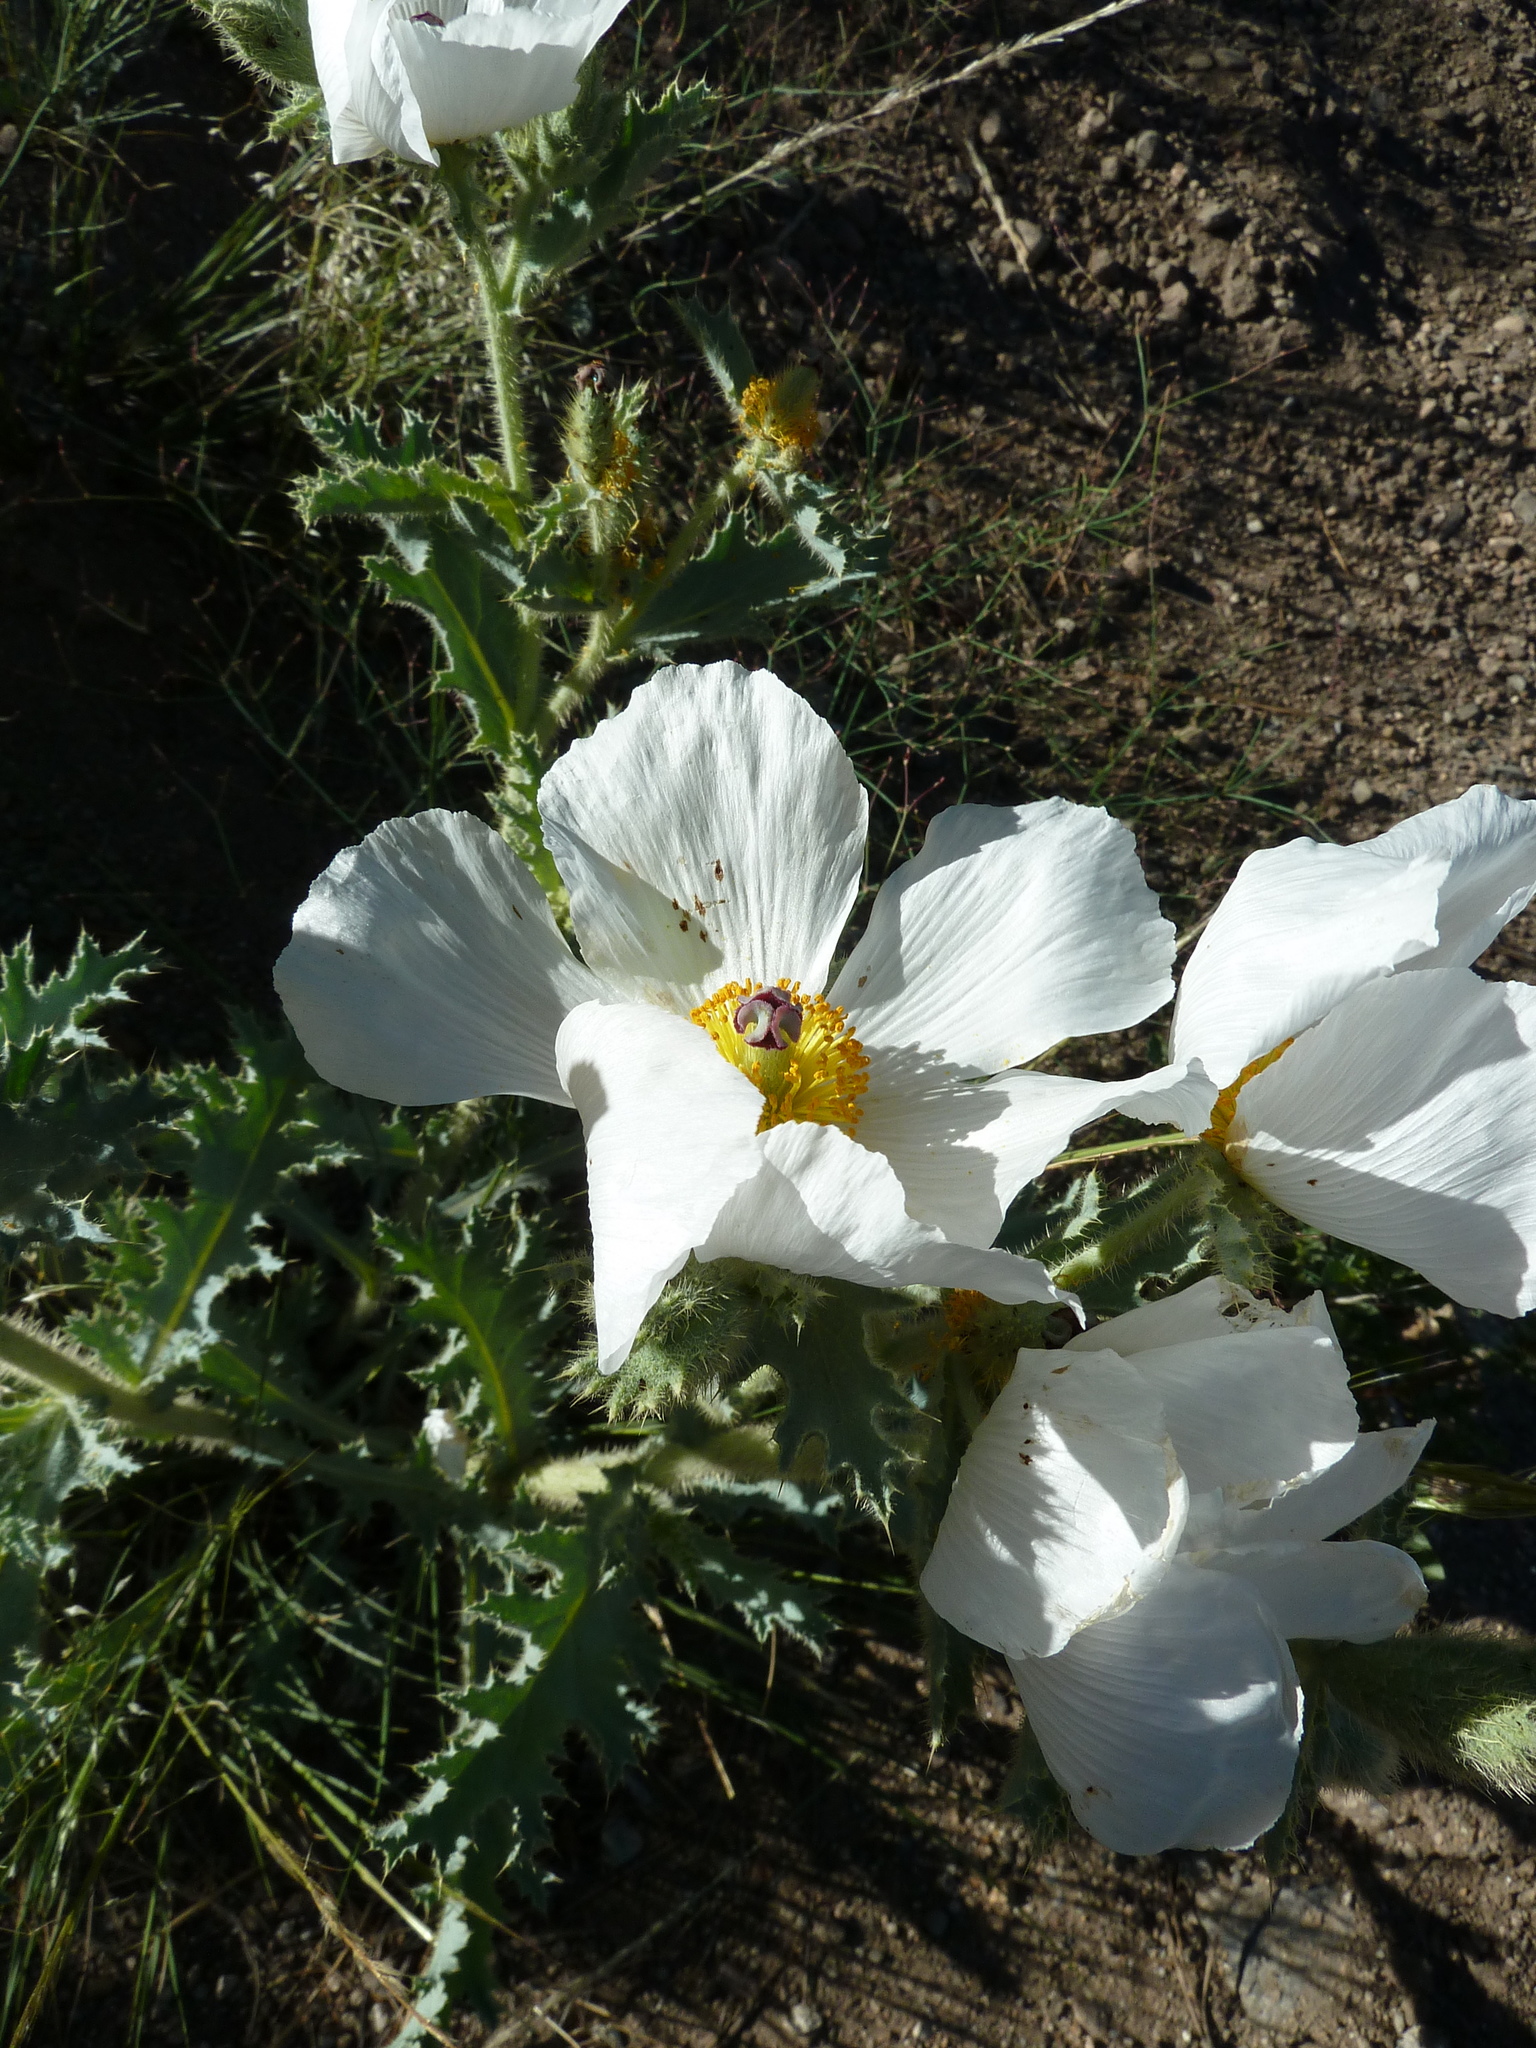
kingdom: Plantae
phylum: Tracheophyta
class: Magnoliopsida
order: Ranunculales
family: Papaveraceae
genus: Argemone
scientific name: Argemone munita
